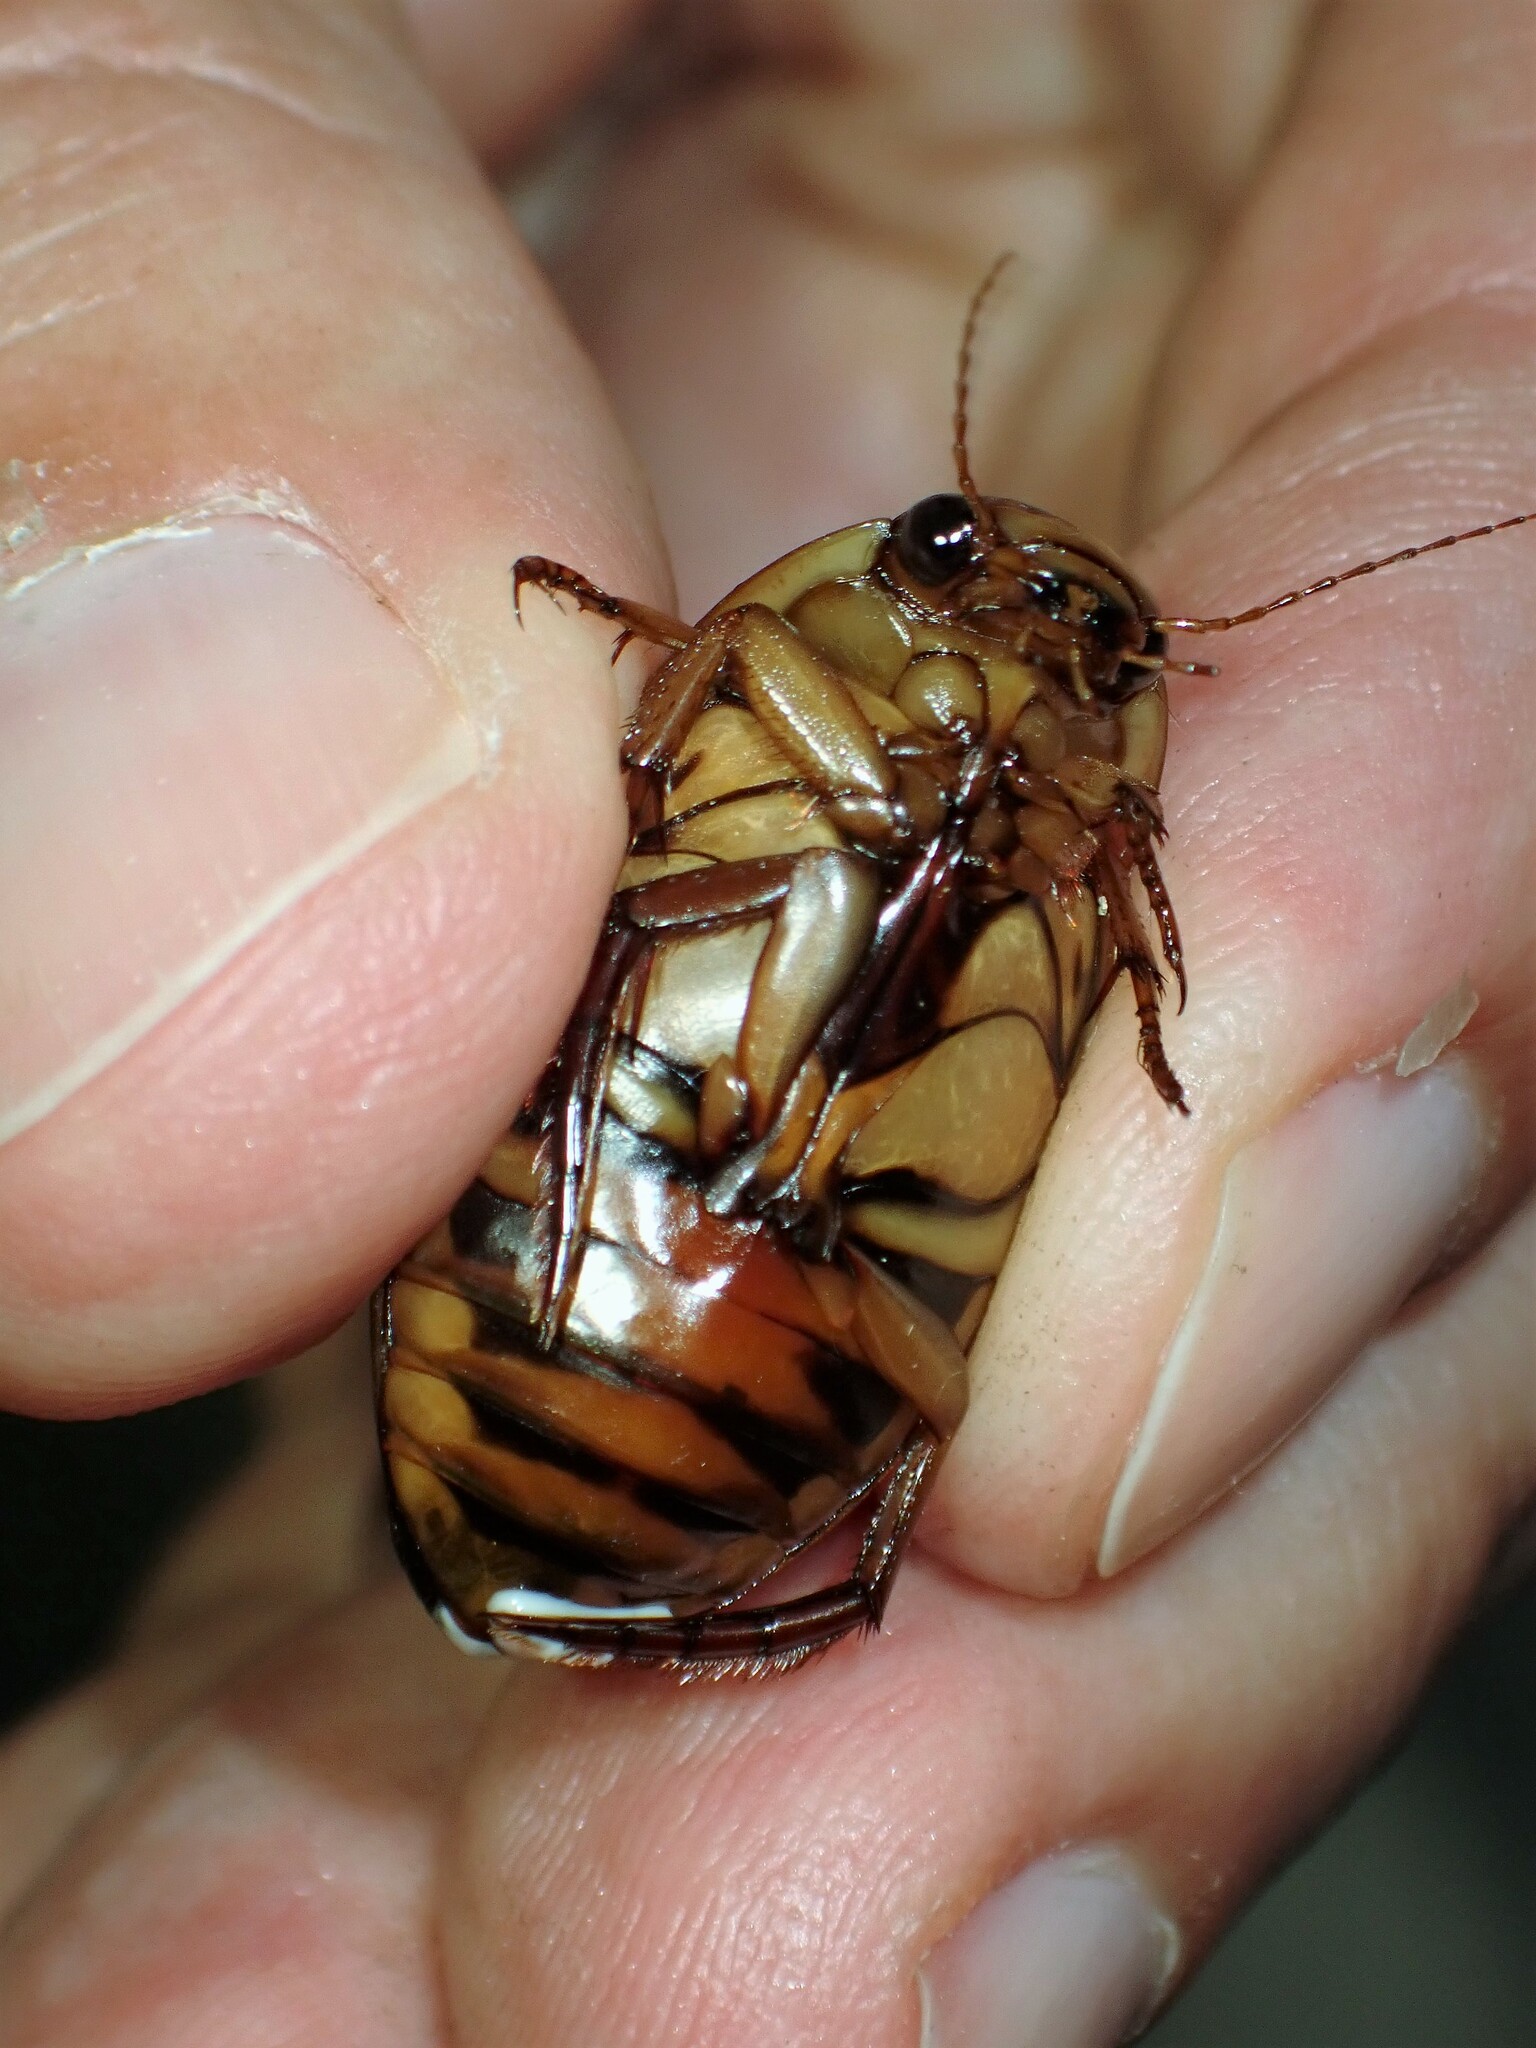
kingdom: Animalia
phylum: Arthropoda
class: Insecta
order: Coleoptera
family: Dytiscidae
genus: Dytiscus
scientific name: Dytiscus fasciventris
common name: Understriped diving beetle
